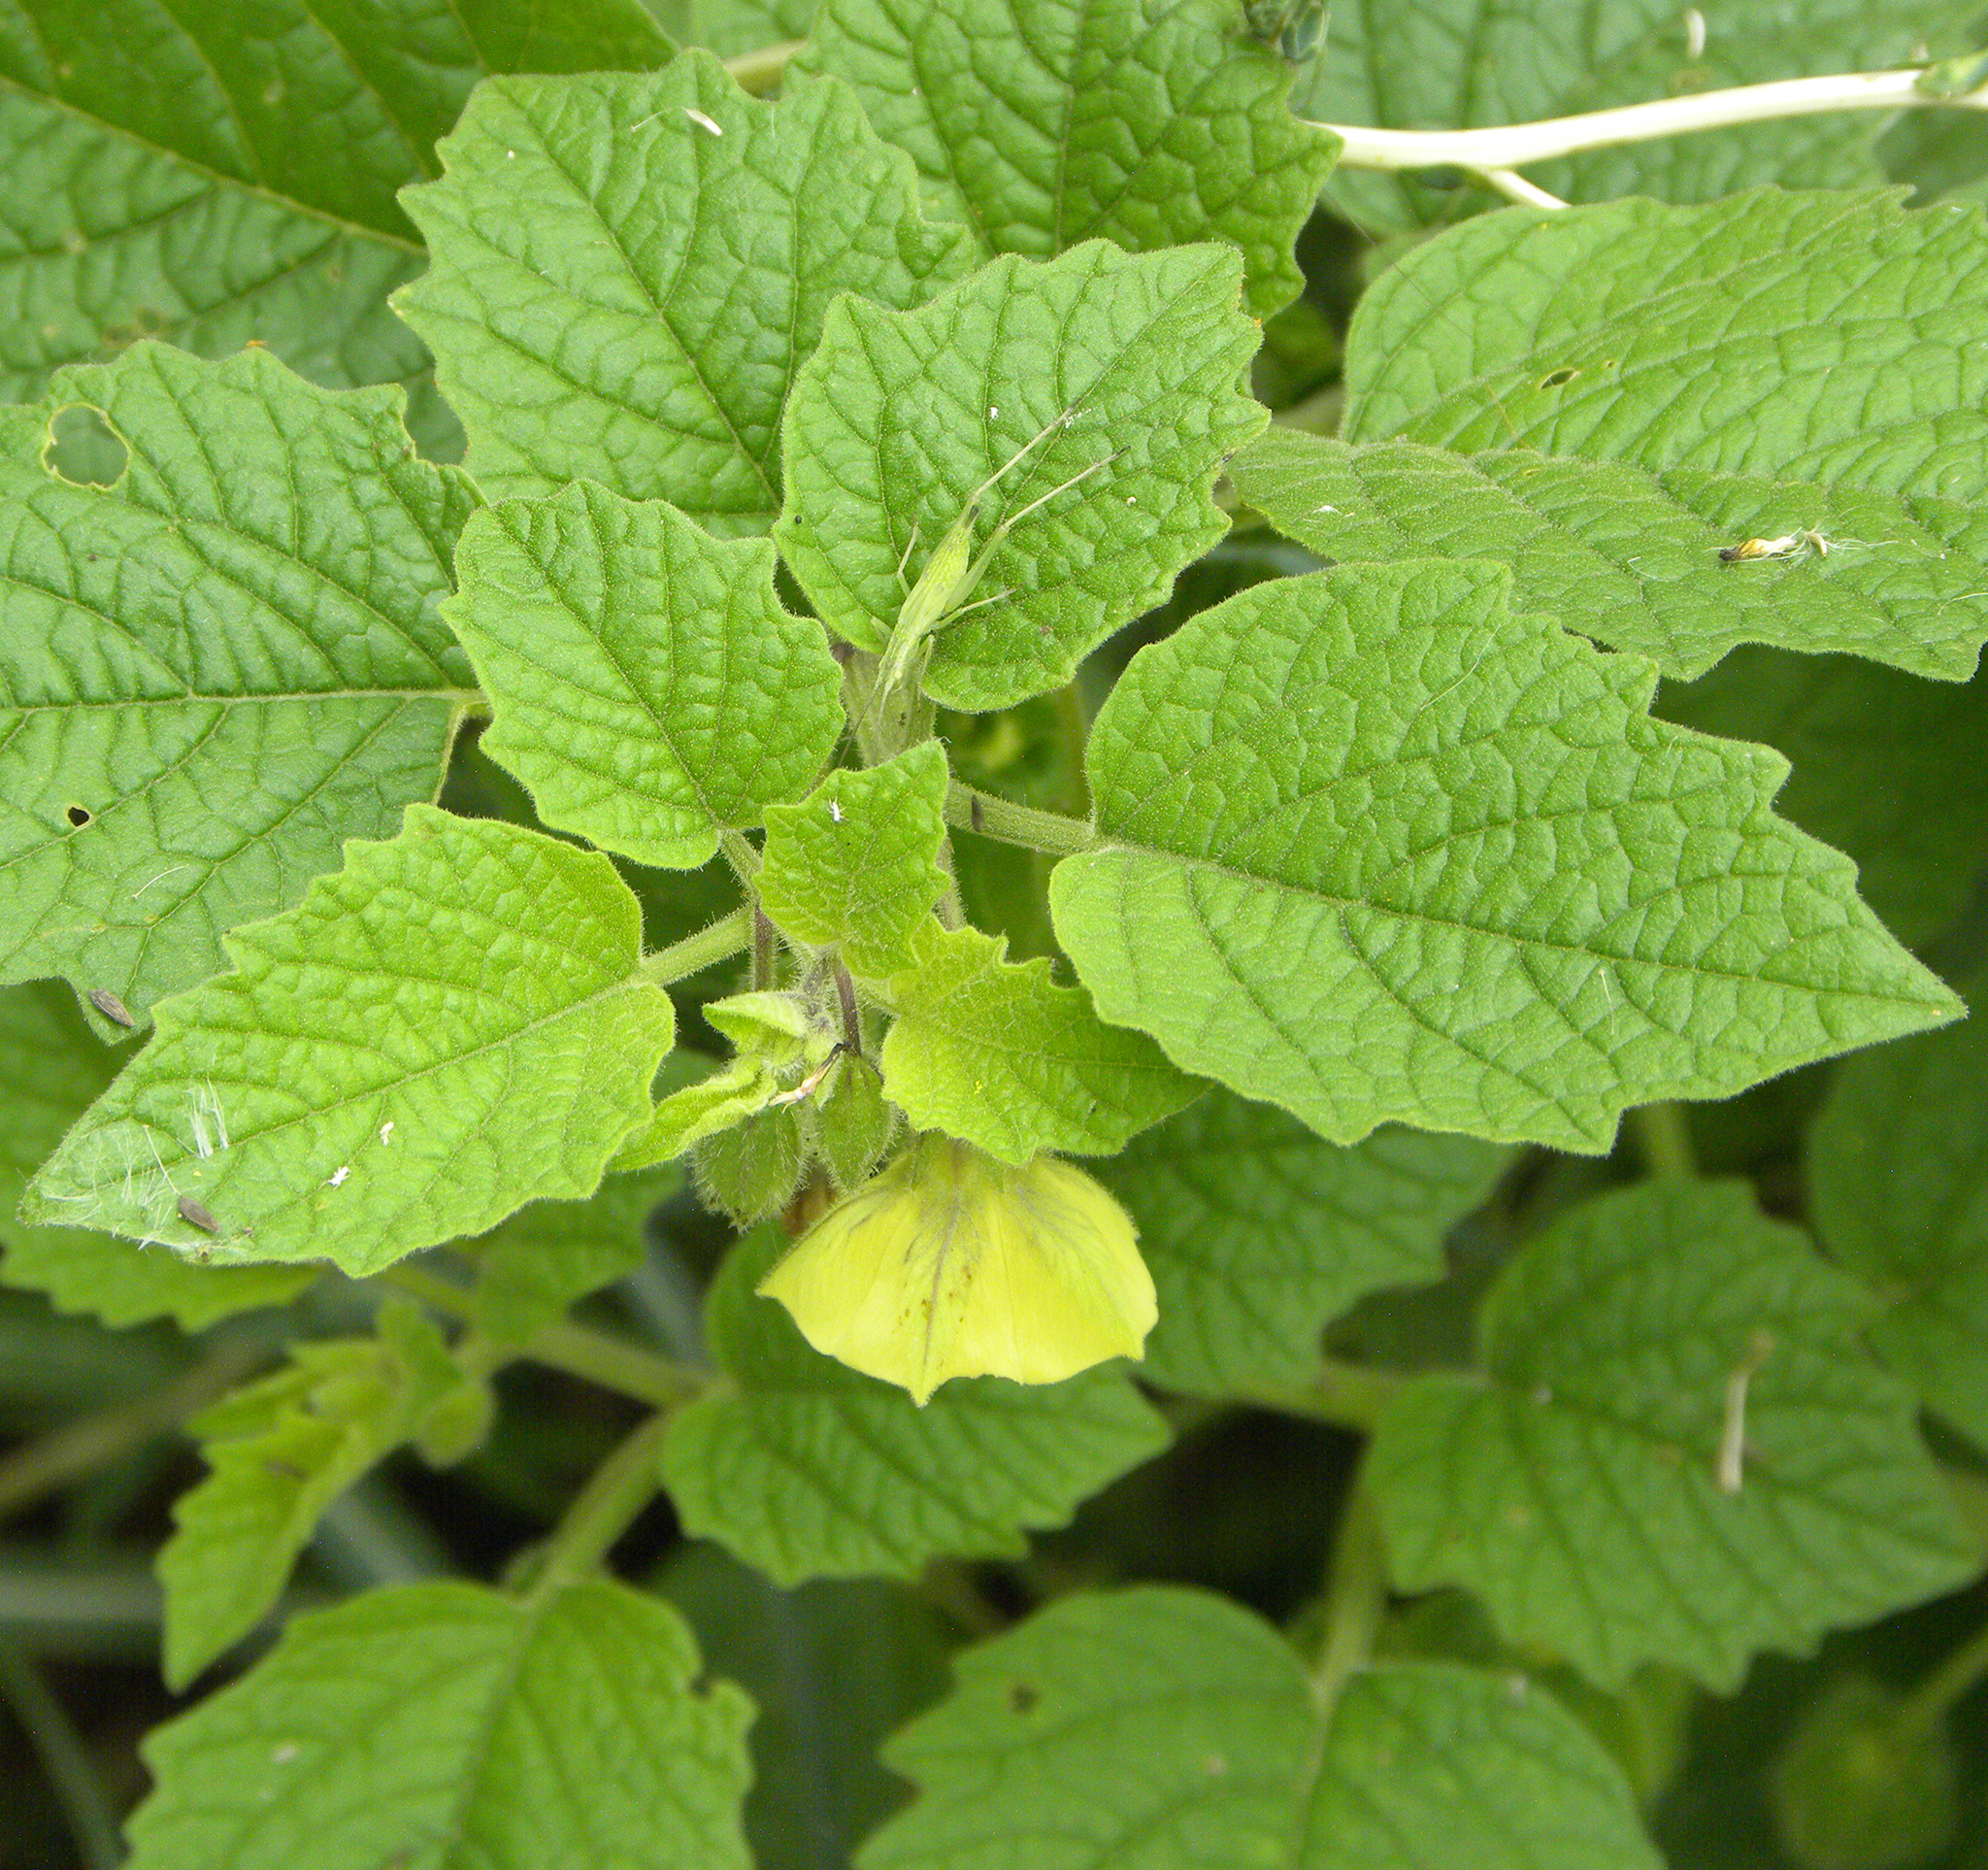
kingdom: Plantae
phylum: Tracheophyta
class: Magnoliopsida
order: Solanales
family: Solanaceae
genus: Physalis
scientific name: Physalis heterophylla
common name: Clammy ground-cherry
